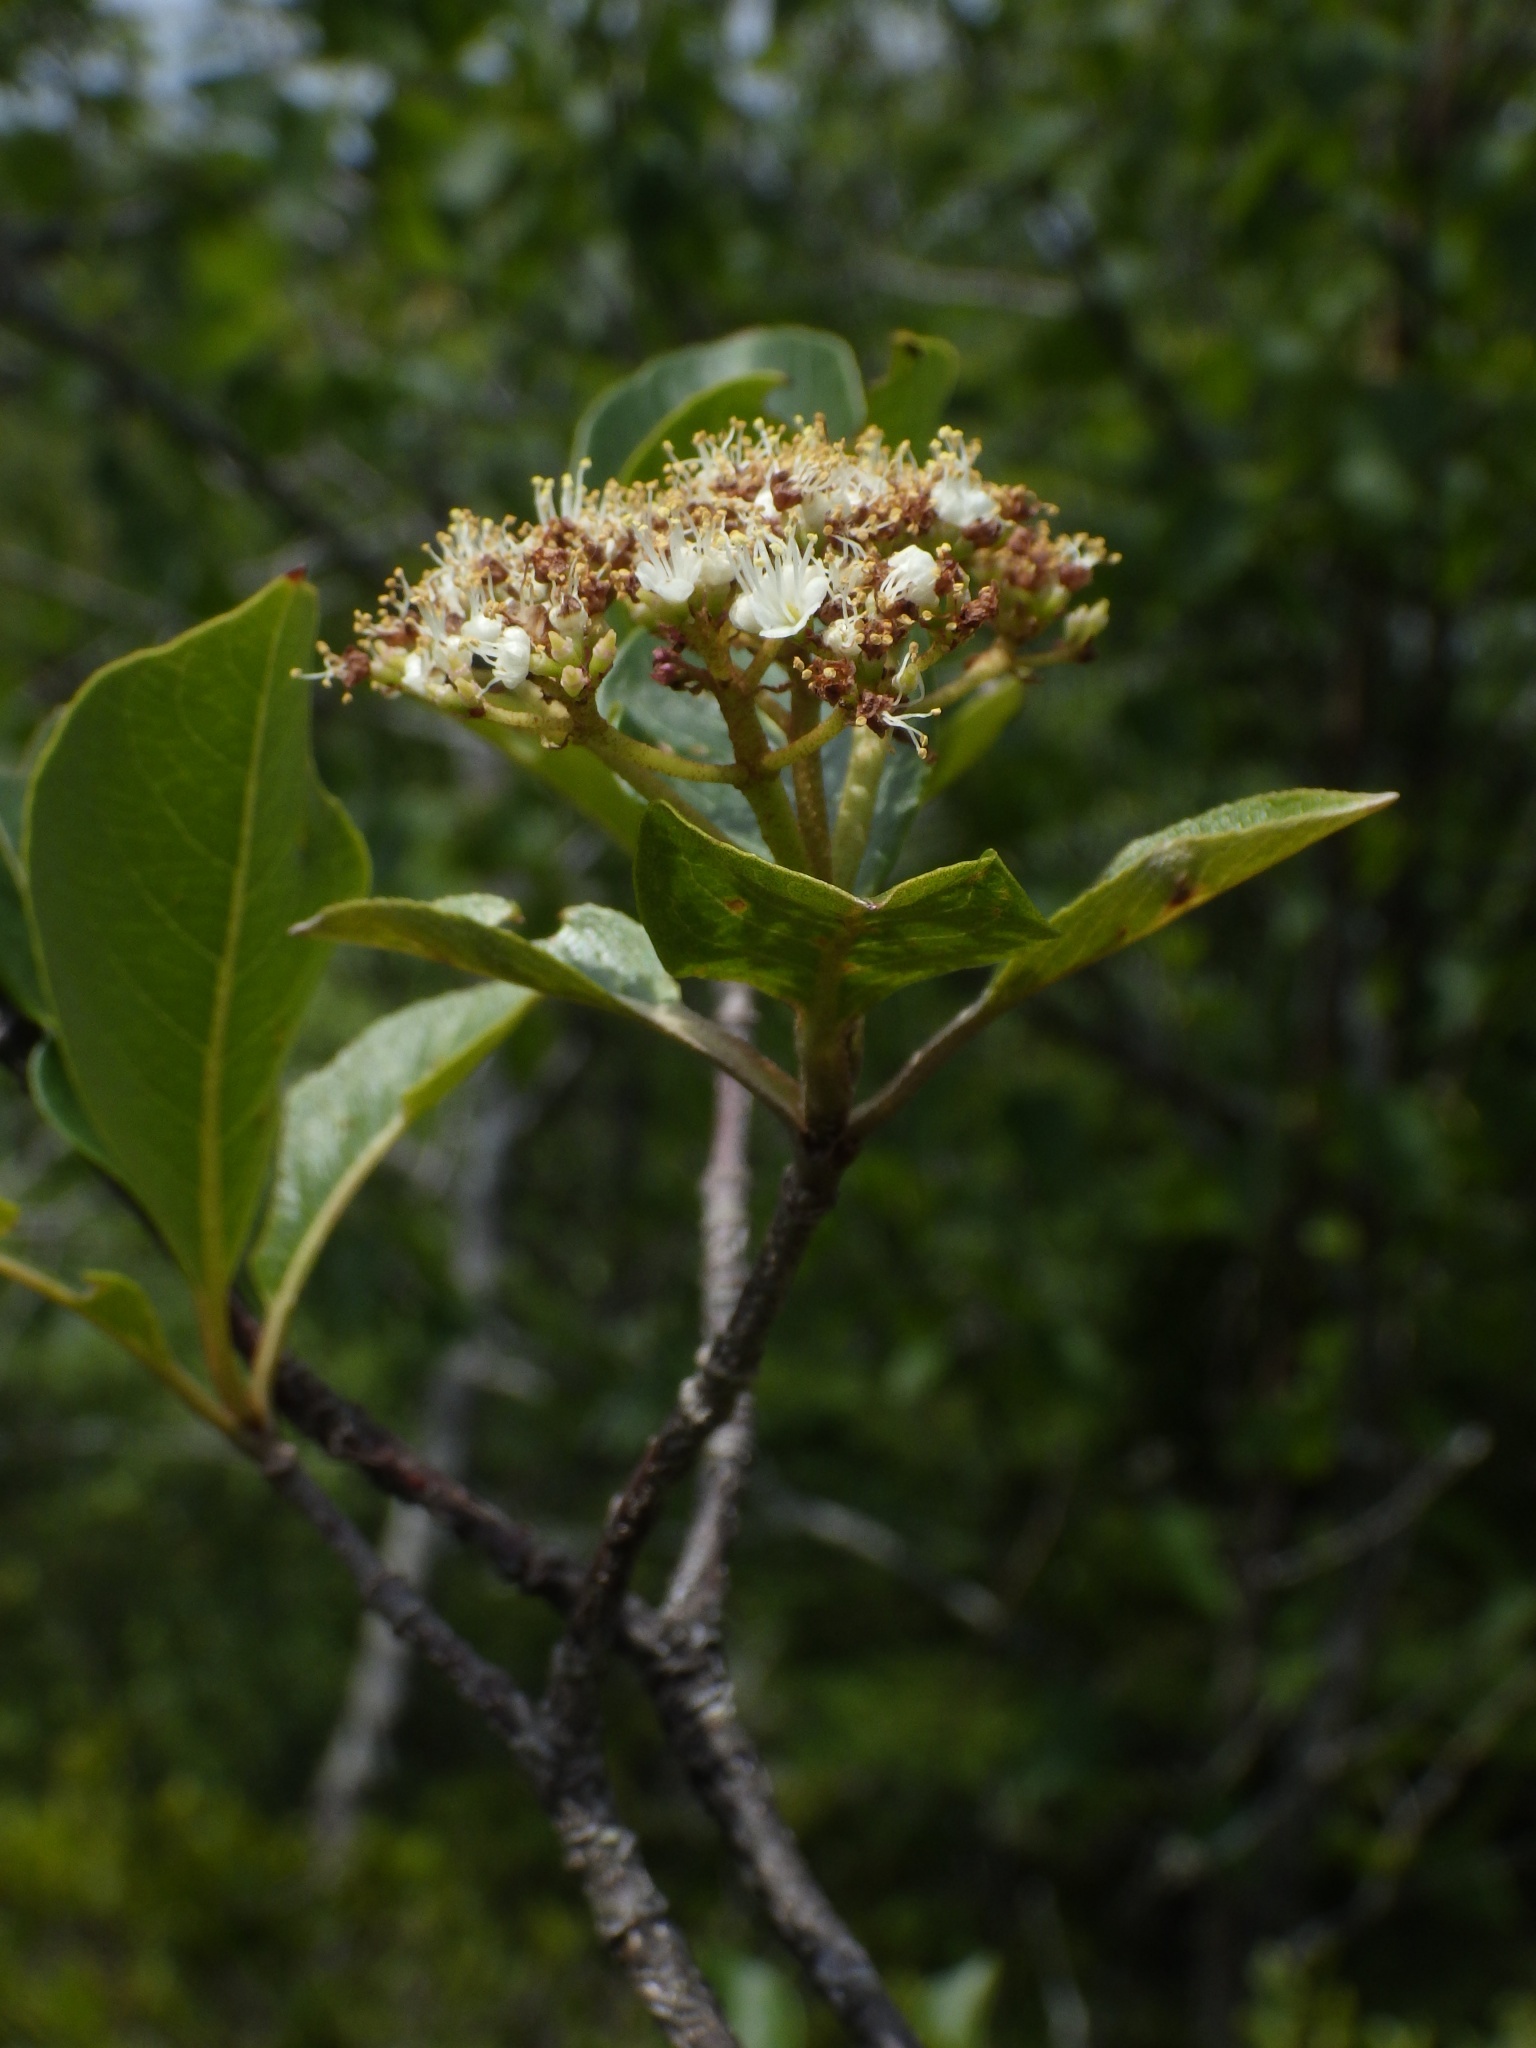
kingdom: Plantae
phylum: Tracheophyta
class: Magnoliopsida
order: Dipsacales
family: Viburnaceae
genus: Viburnum
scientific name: Viburnum cassinoides
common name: Swamp haw
